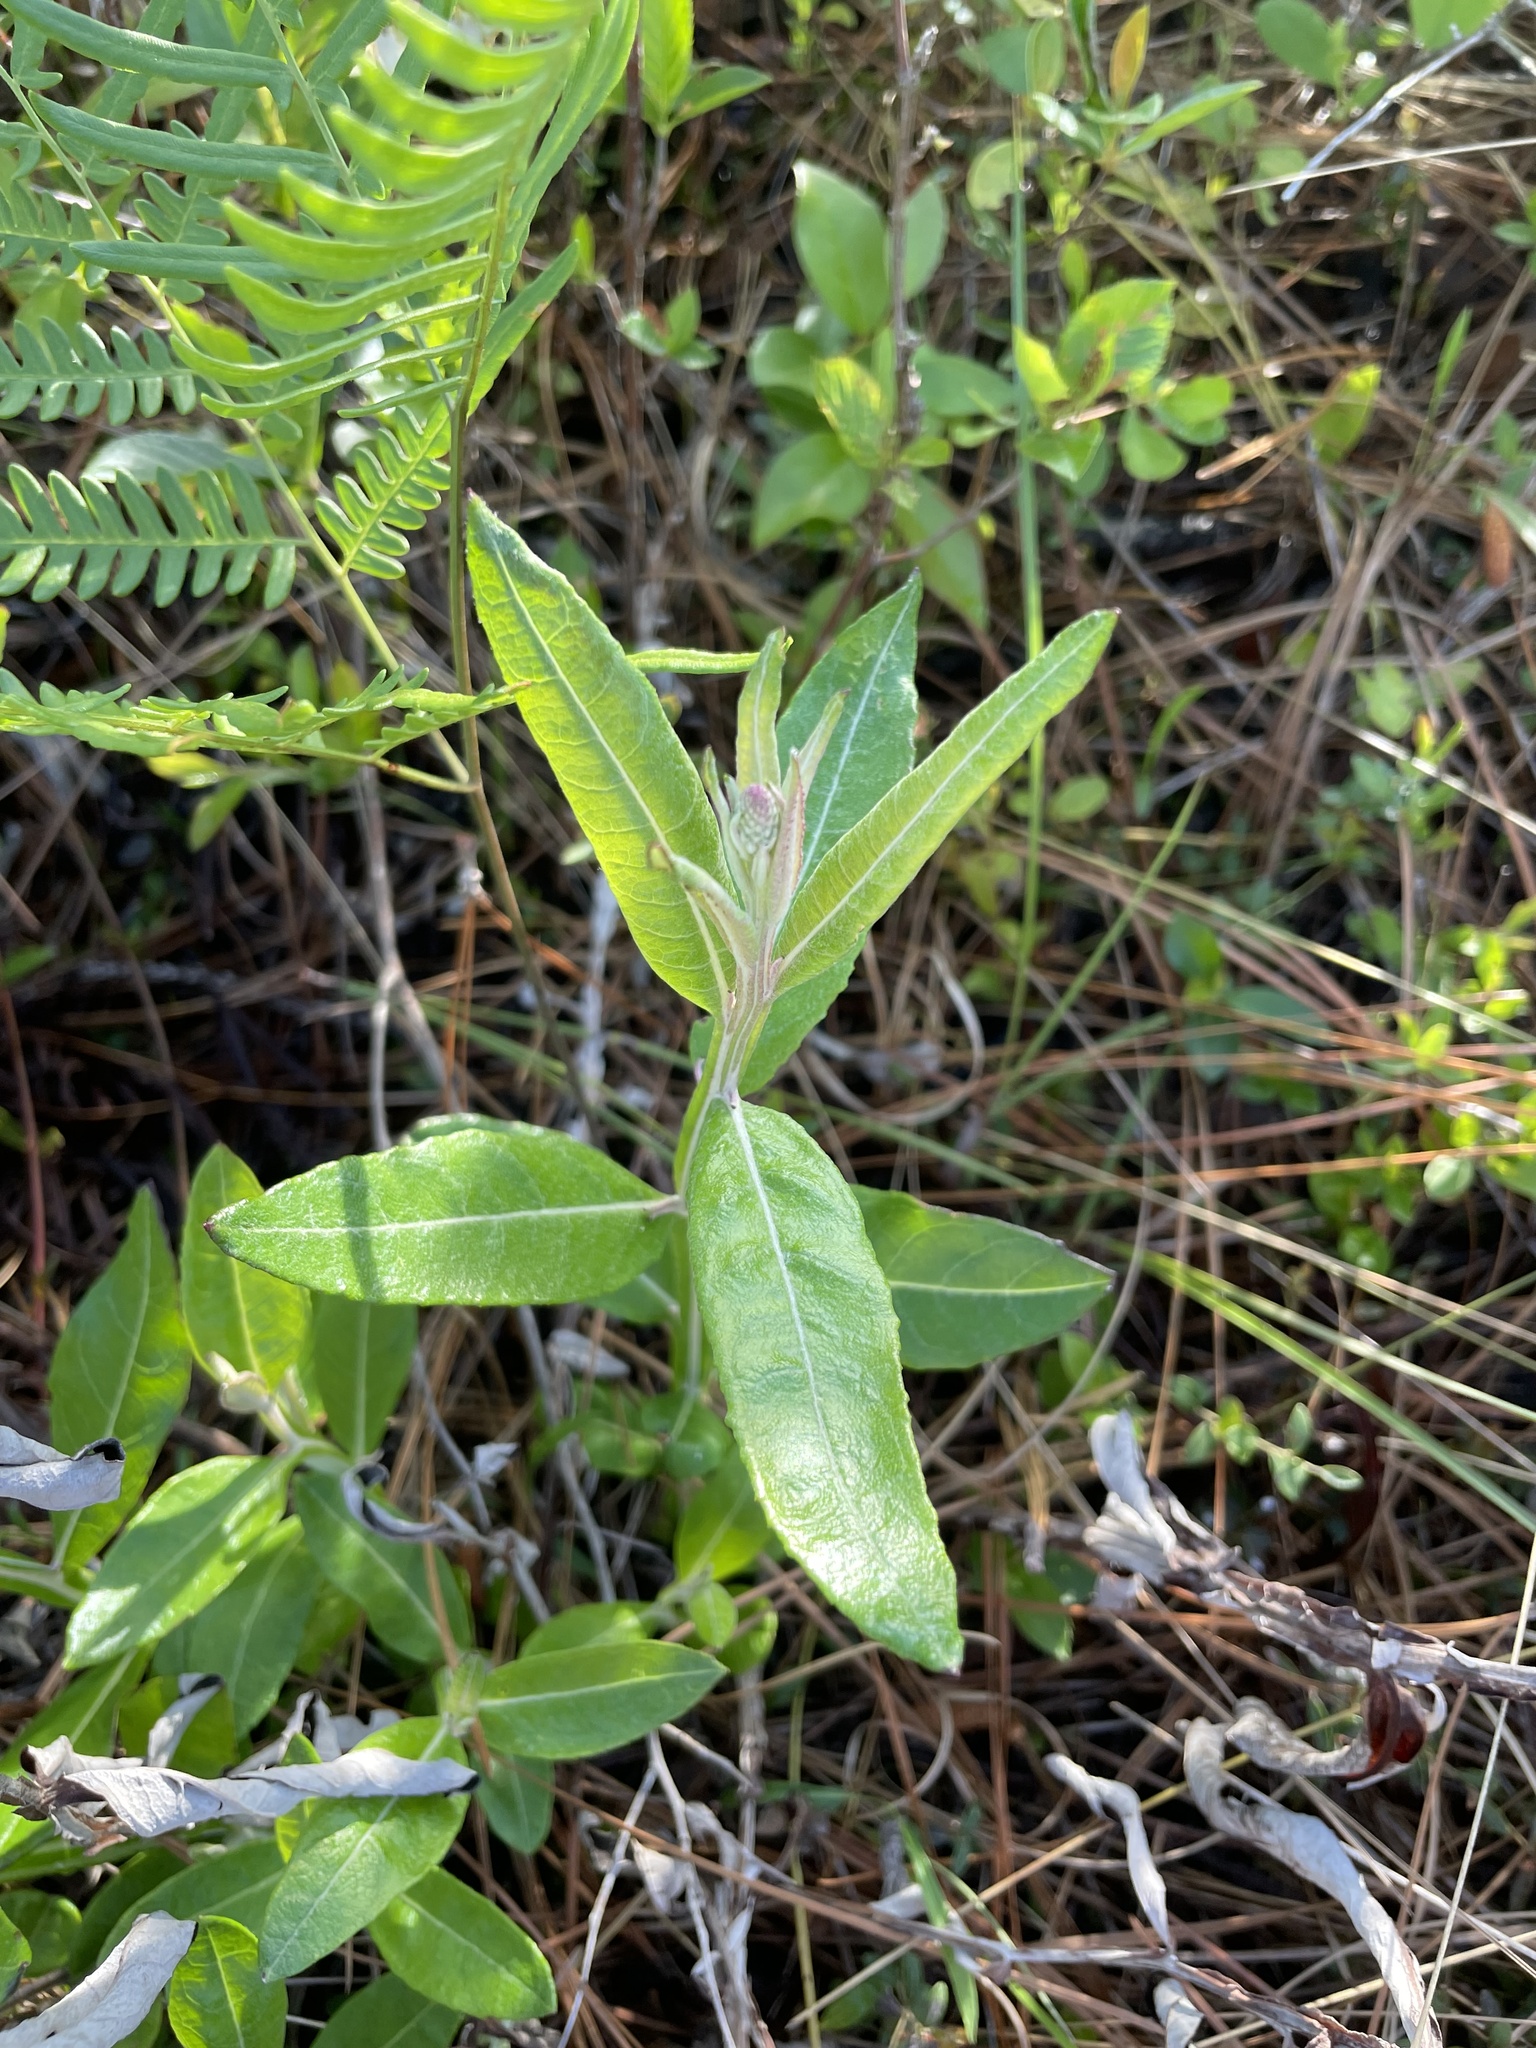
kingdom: Plantae
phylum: Tracheophyta
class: Magnoliopsida
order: Asterales
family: Asteraceae
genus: Pterocaulon
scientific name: Pterocaulon pycnostachyum
